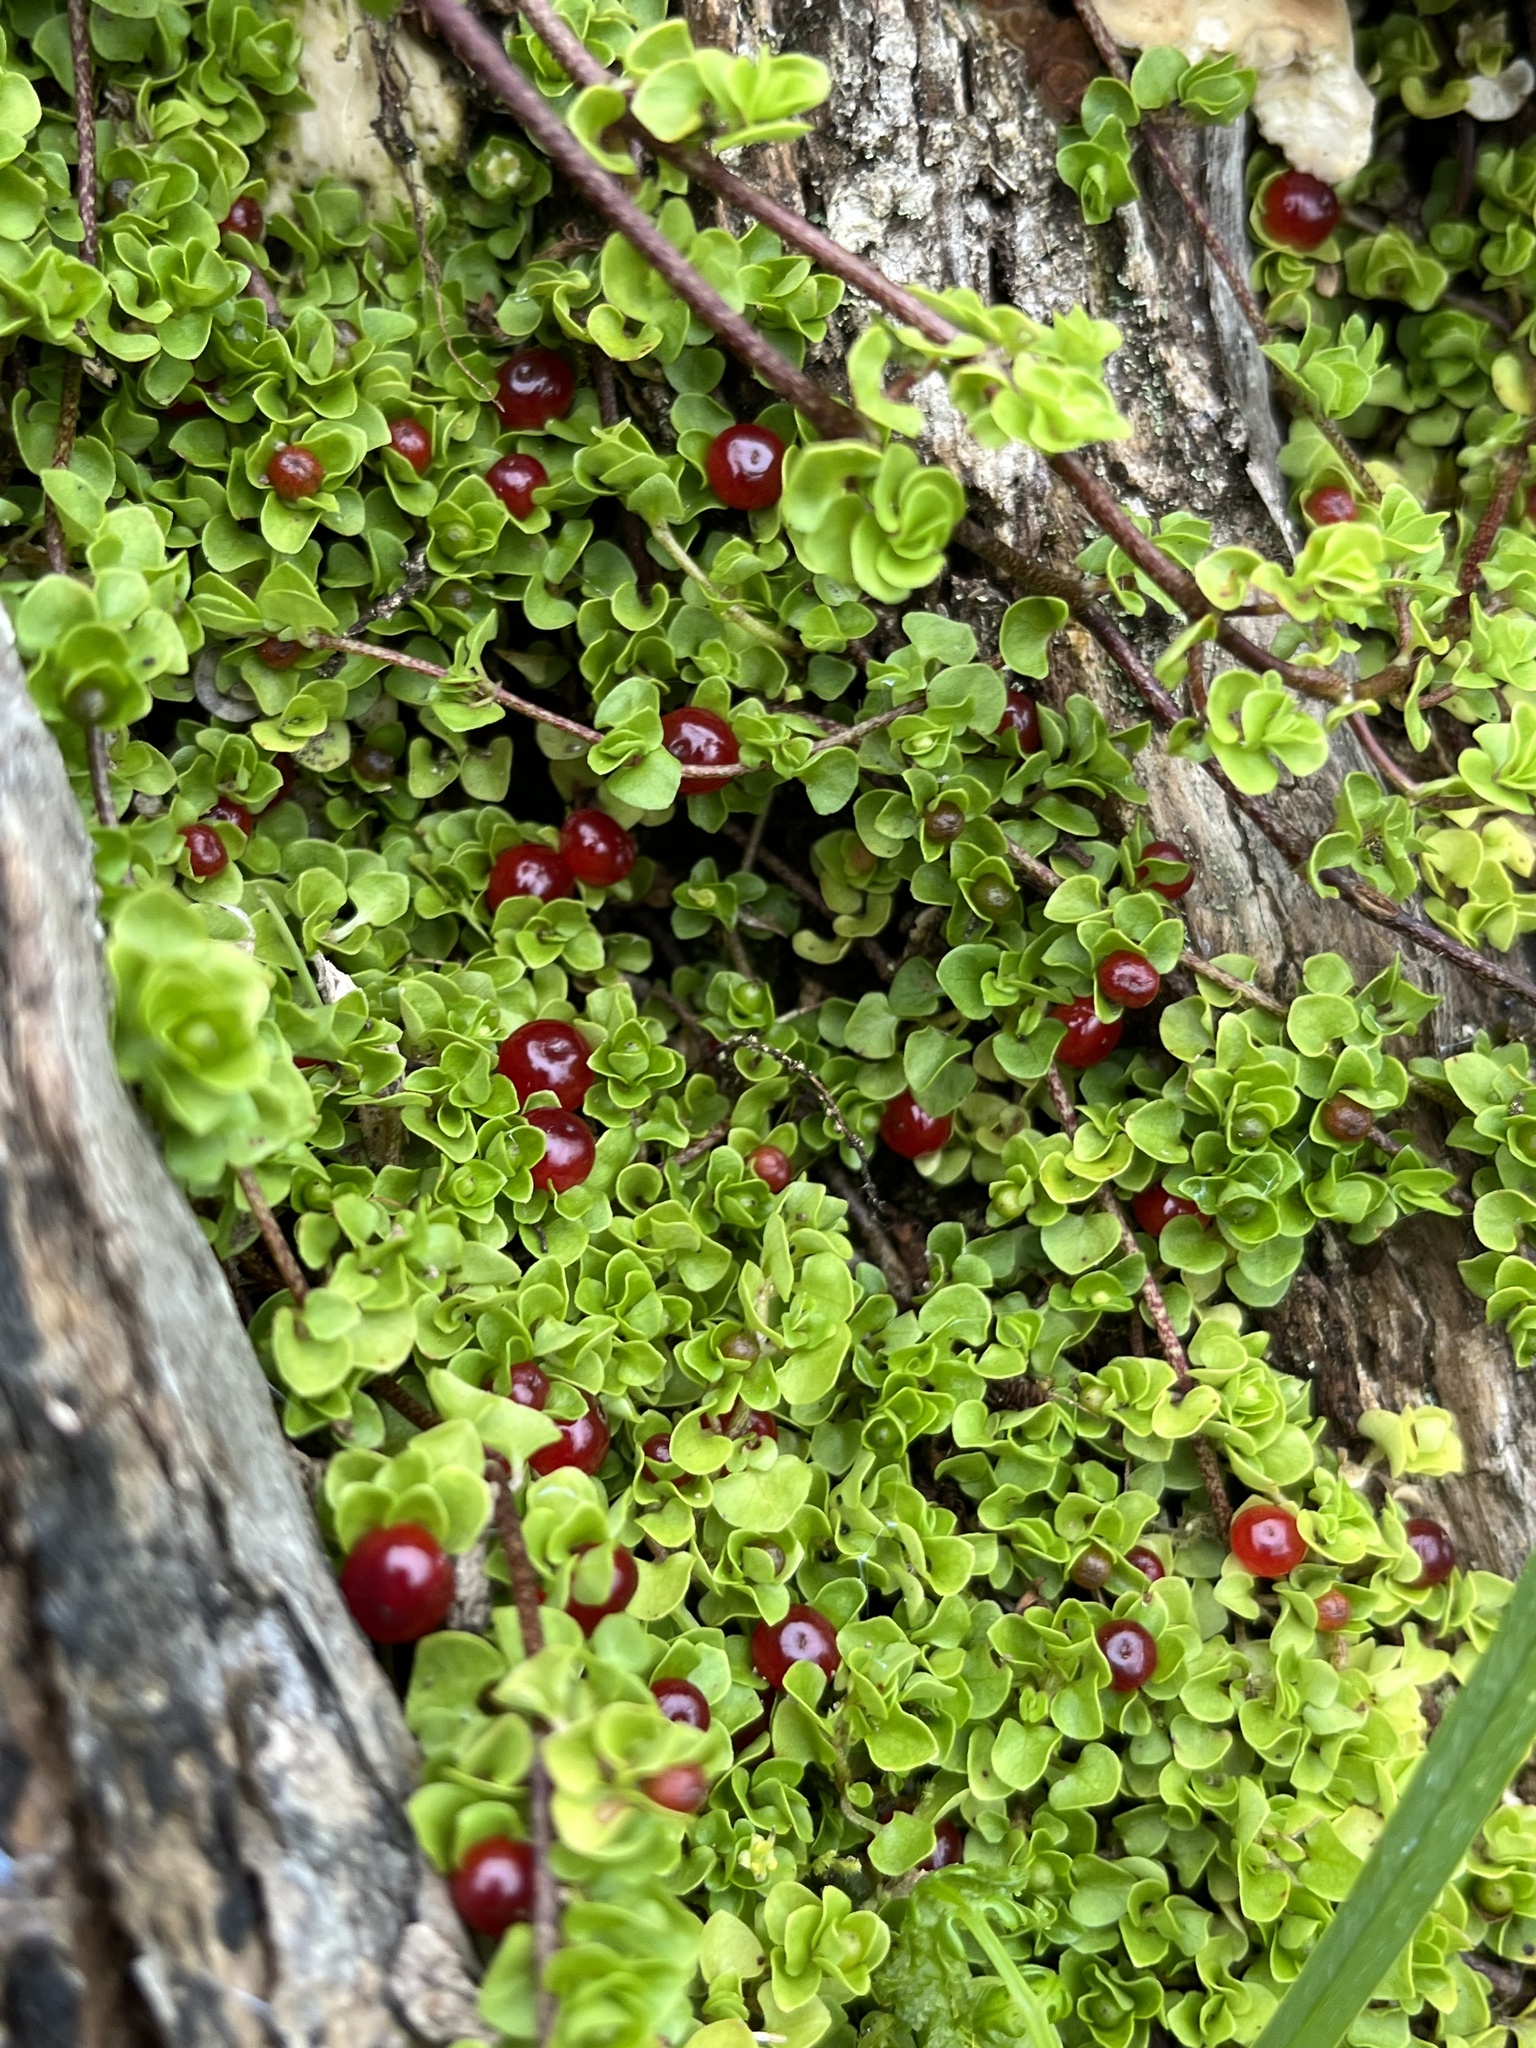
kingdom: Plantae
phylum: Tracheophyta
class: Magnoliopsida
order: Gentianales
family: Rubiaceae
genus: Nertera
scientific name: Nertera granadensis
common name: Beadplant
